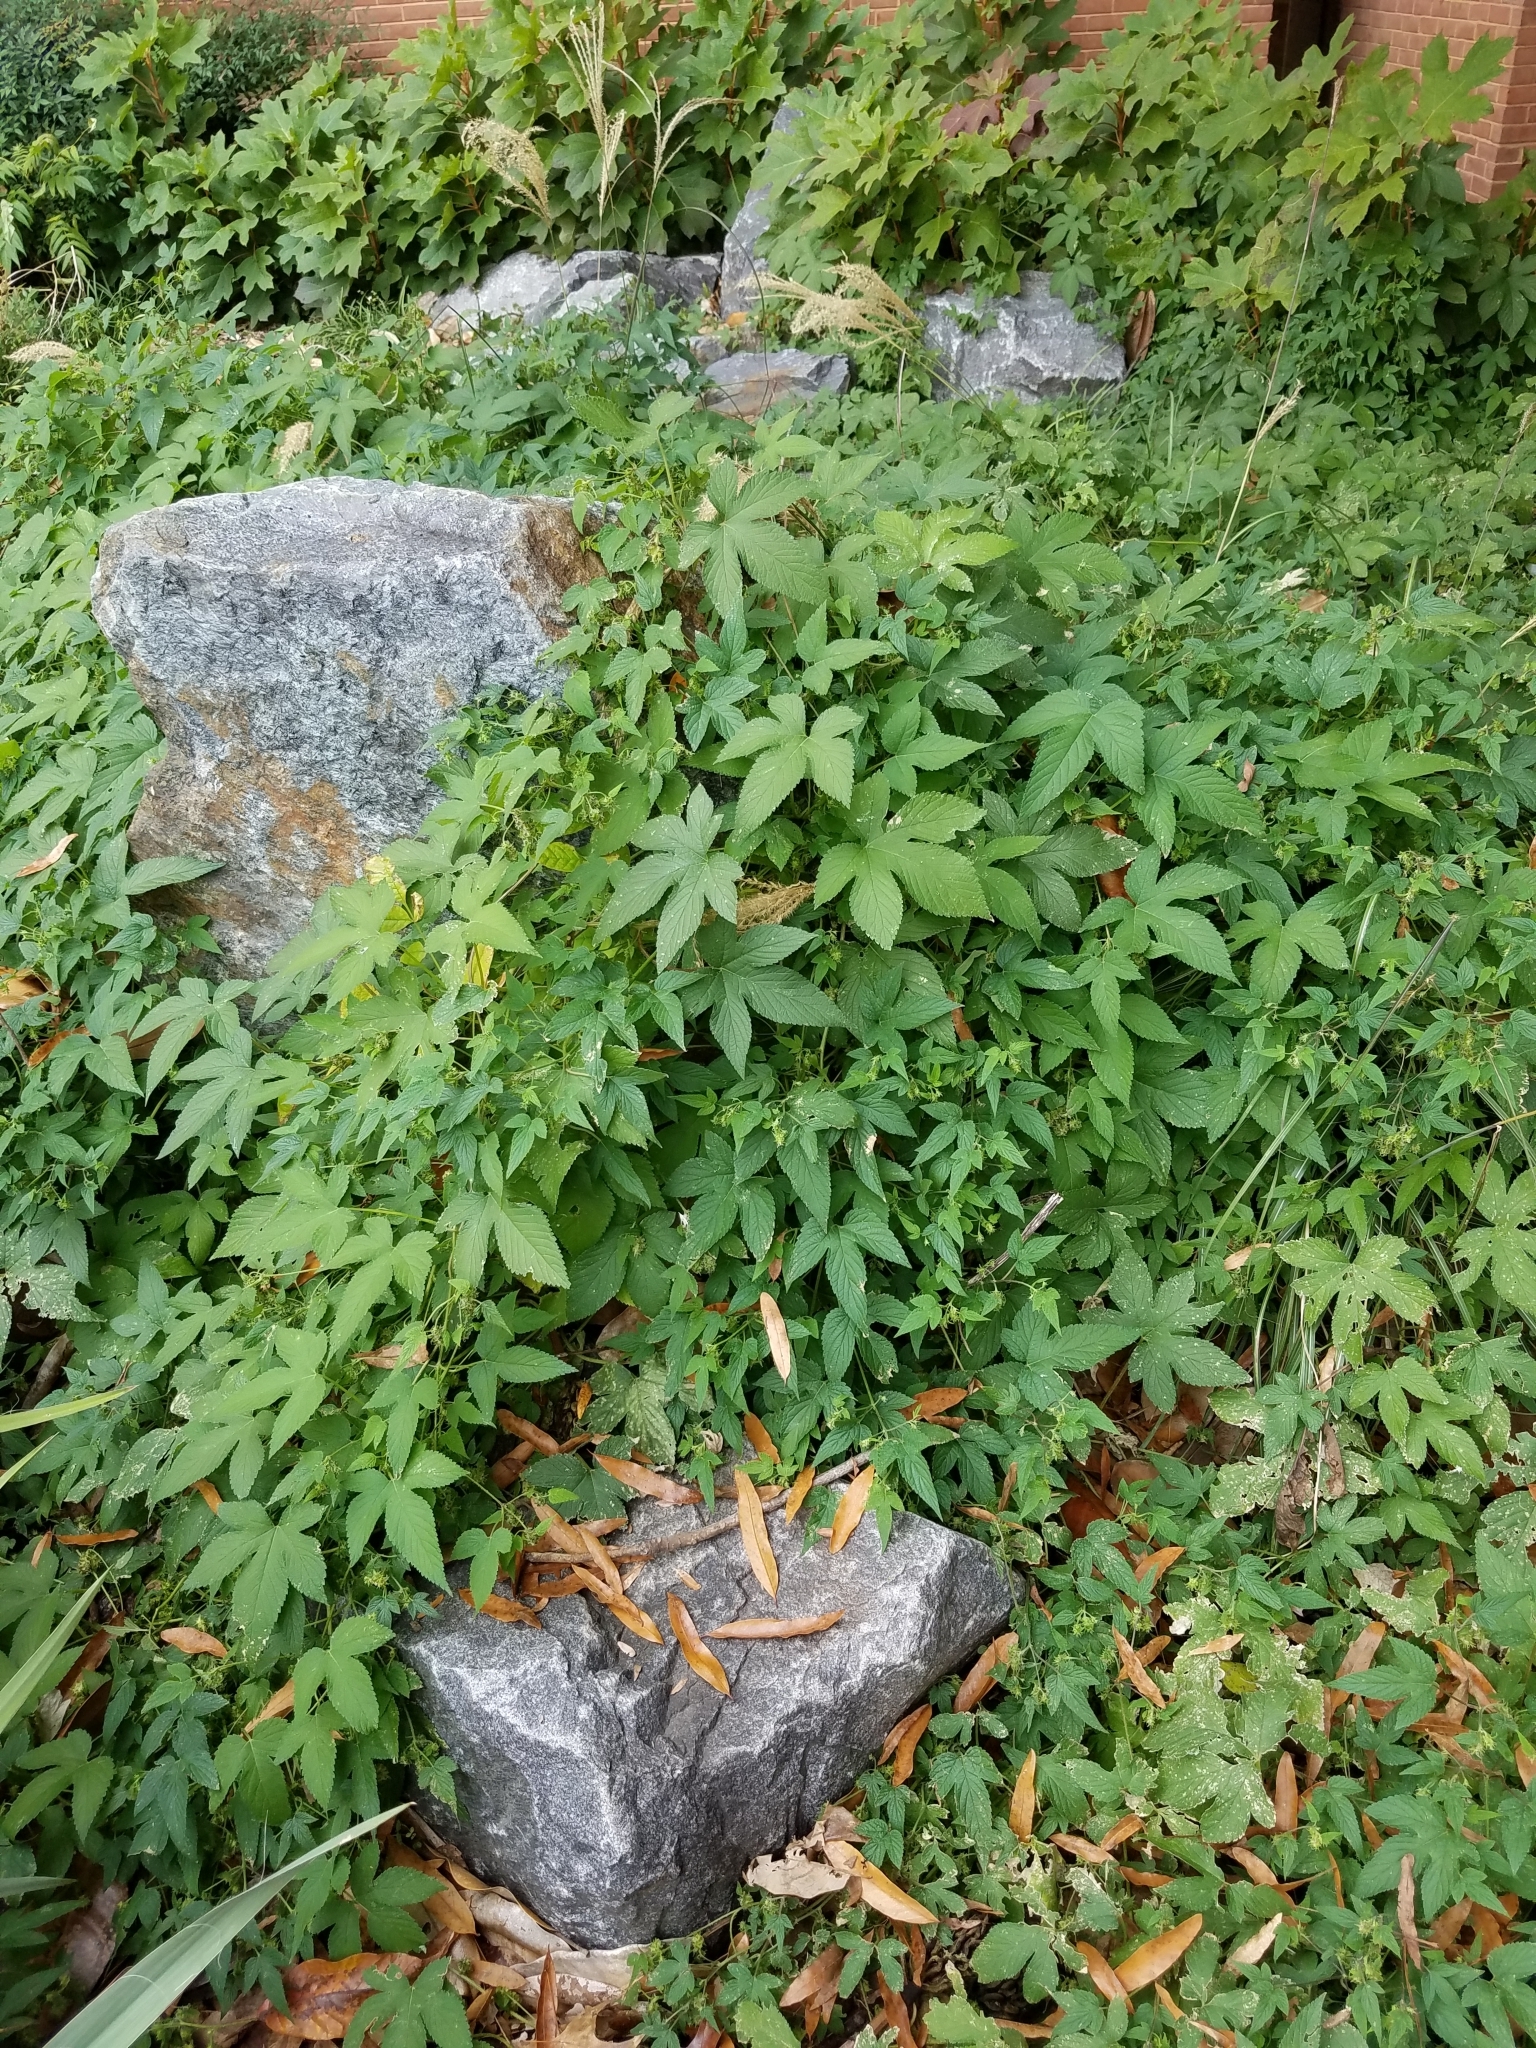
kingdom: Plantae
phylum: Tracheophyta
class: Magnoliopsida
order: Rosales
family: Cannabaceae
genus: Humulus
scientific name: Humulus scandens
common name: Japanese hop
